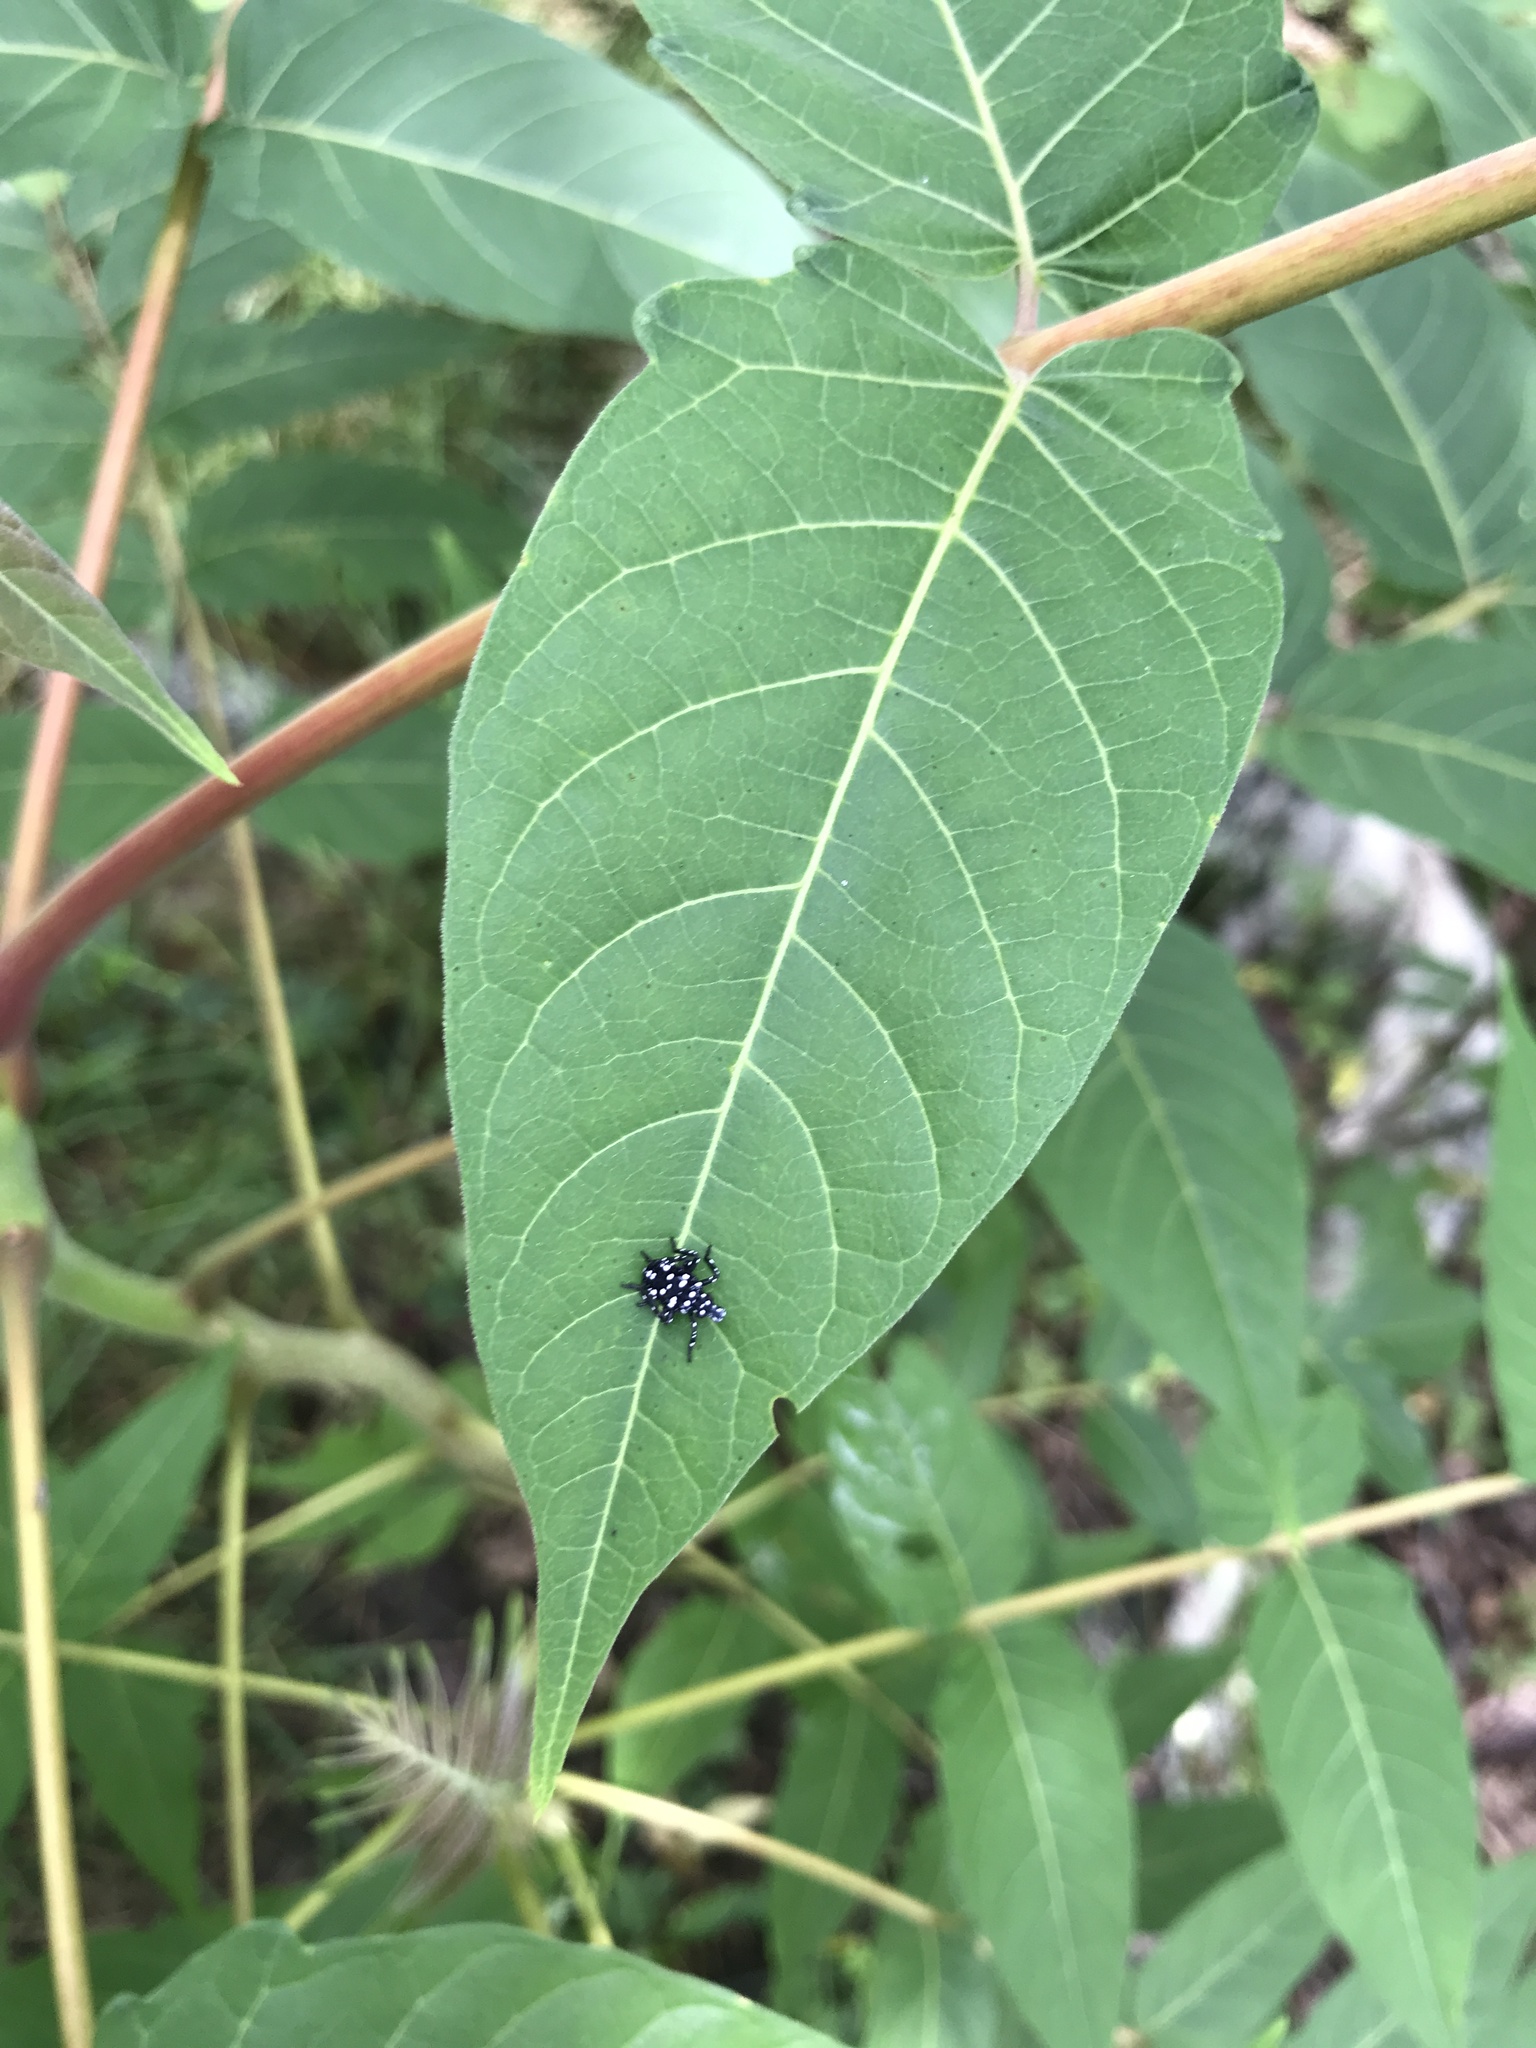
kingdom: Animalia
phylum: Arthropoda
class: Insecta
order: Hemiptera
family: Fulgoridae
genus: Lycorma
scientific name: Lycorma delicatula
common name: Spotted lanternfly
